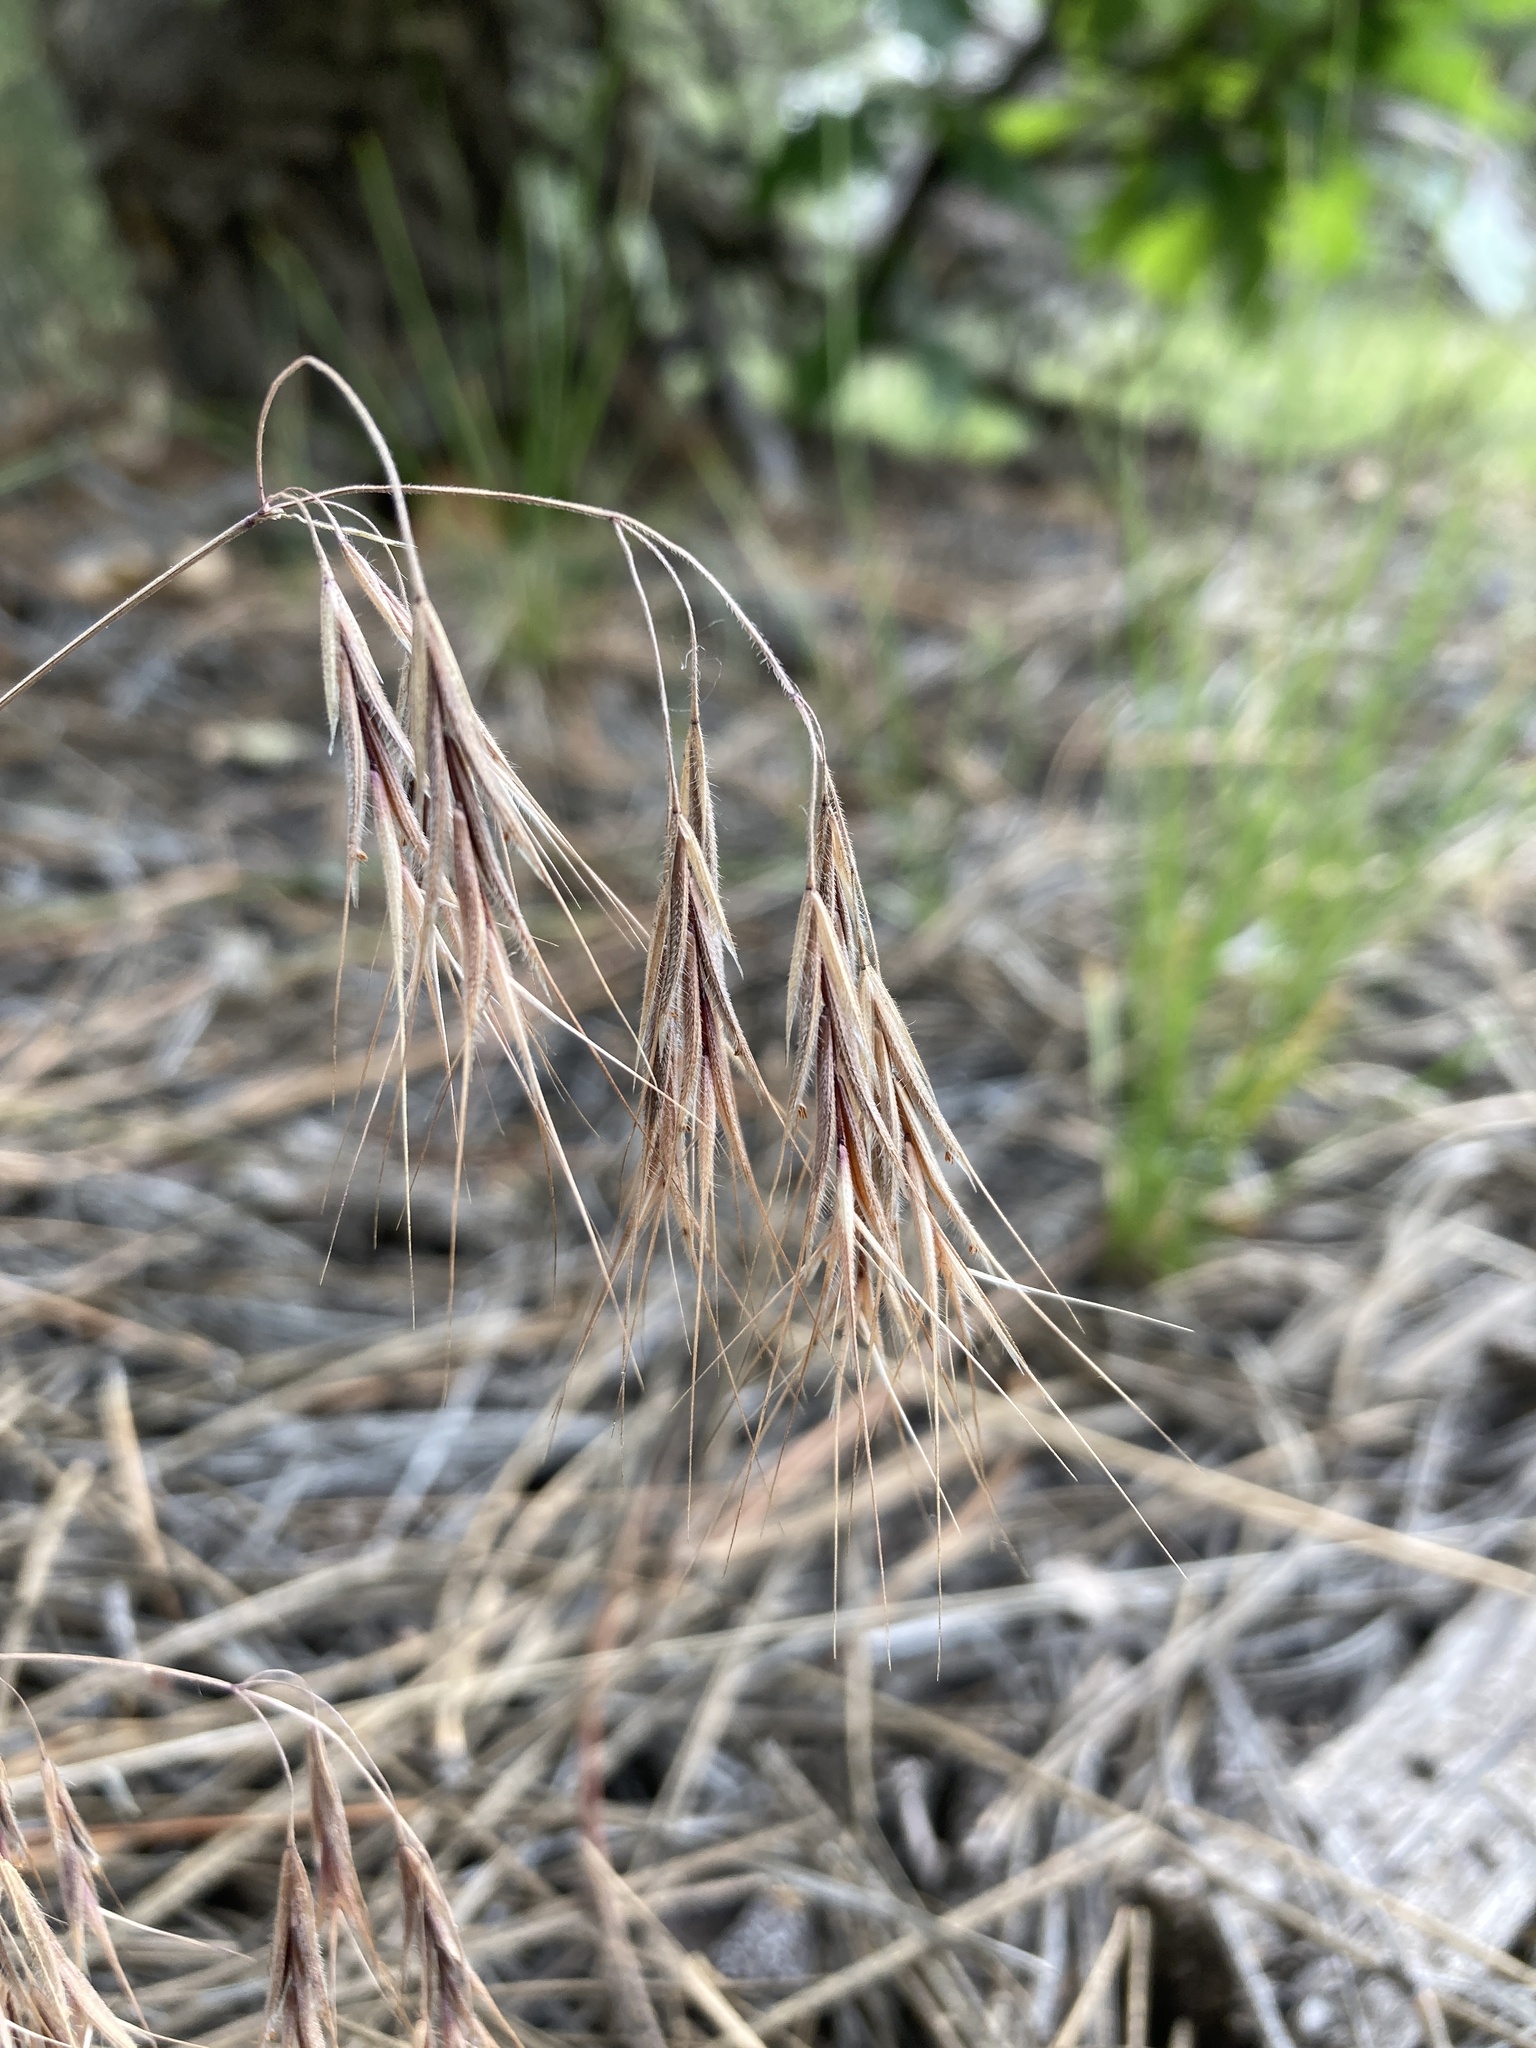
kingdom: Plantae
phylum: Tracheophyta
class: Liliopsida
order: Poales
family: Poaceae
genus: Bromus
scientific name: Bromus tectorum
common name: Cheatgrass
